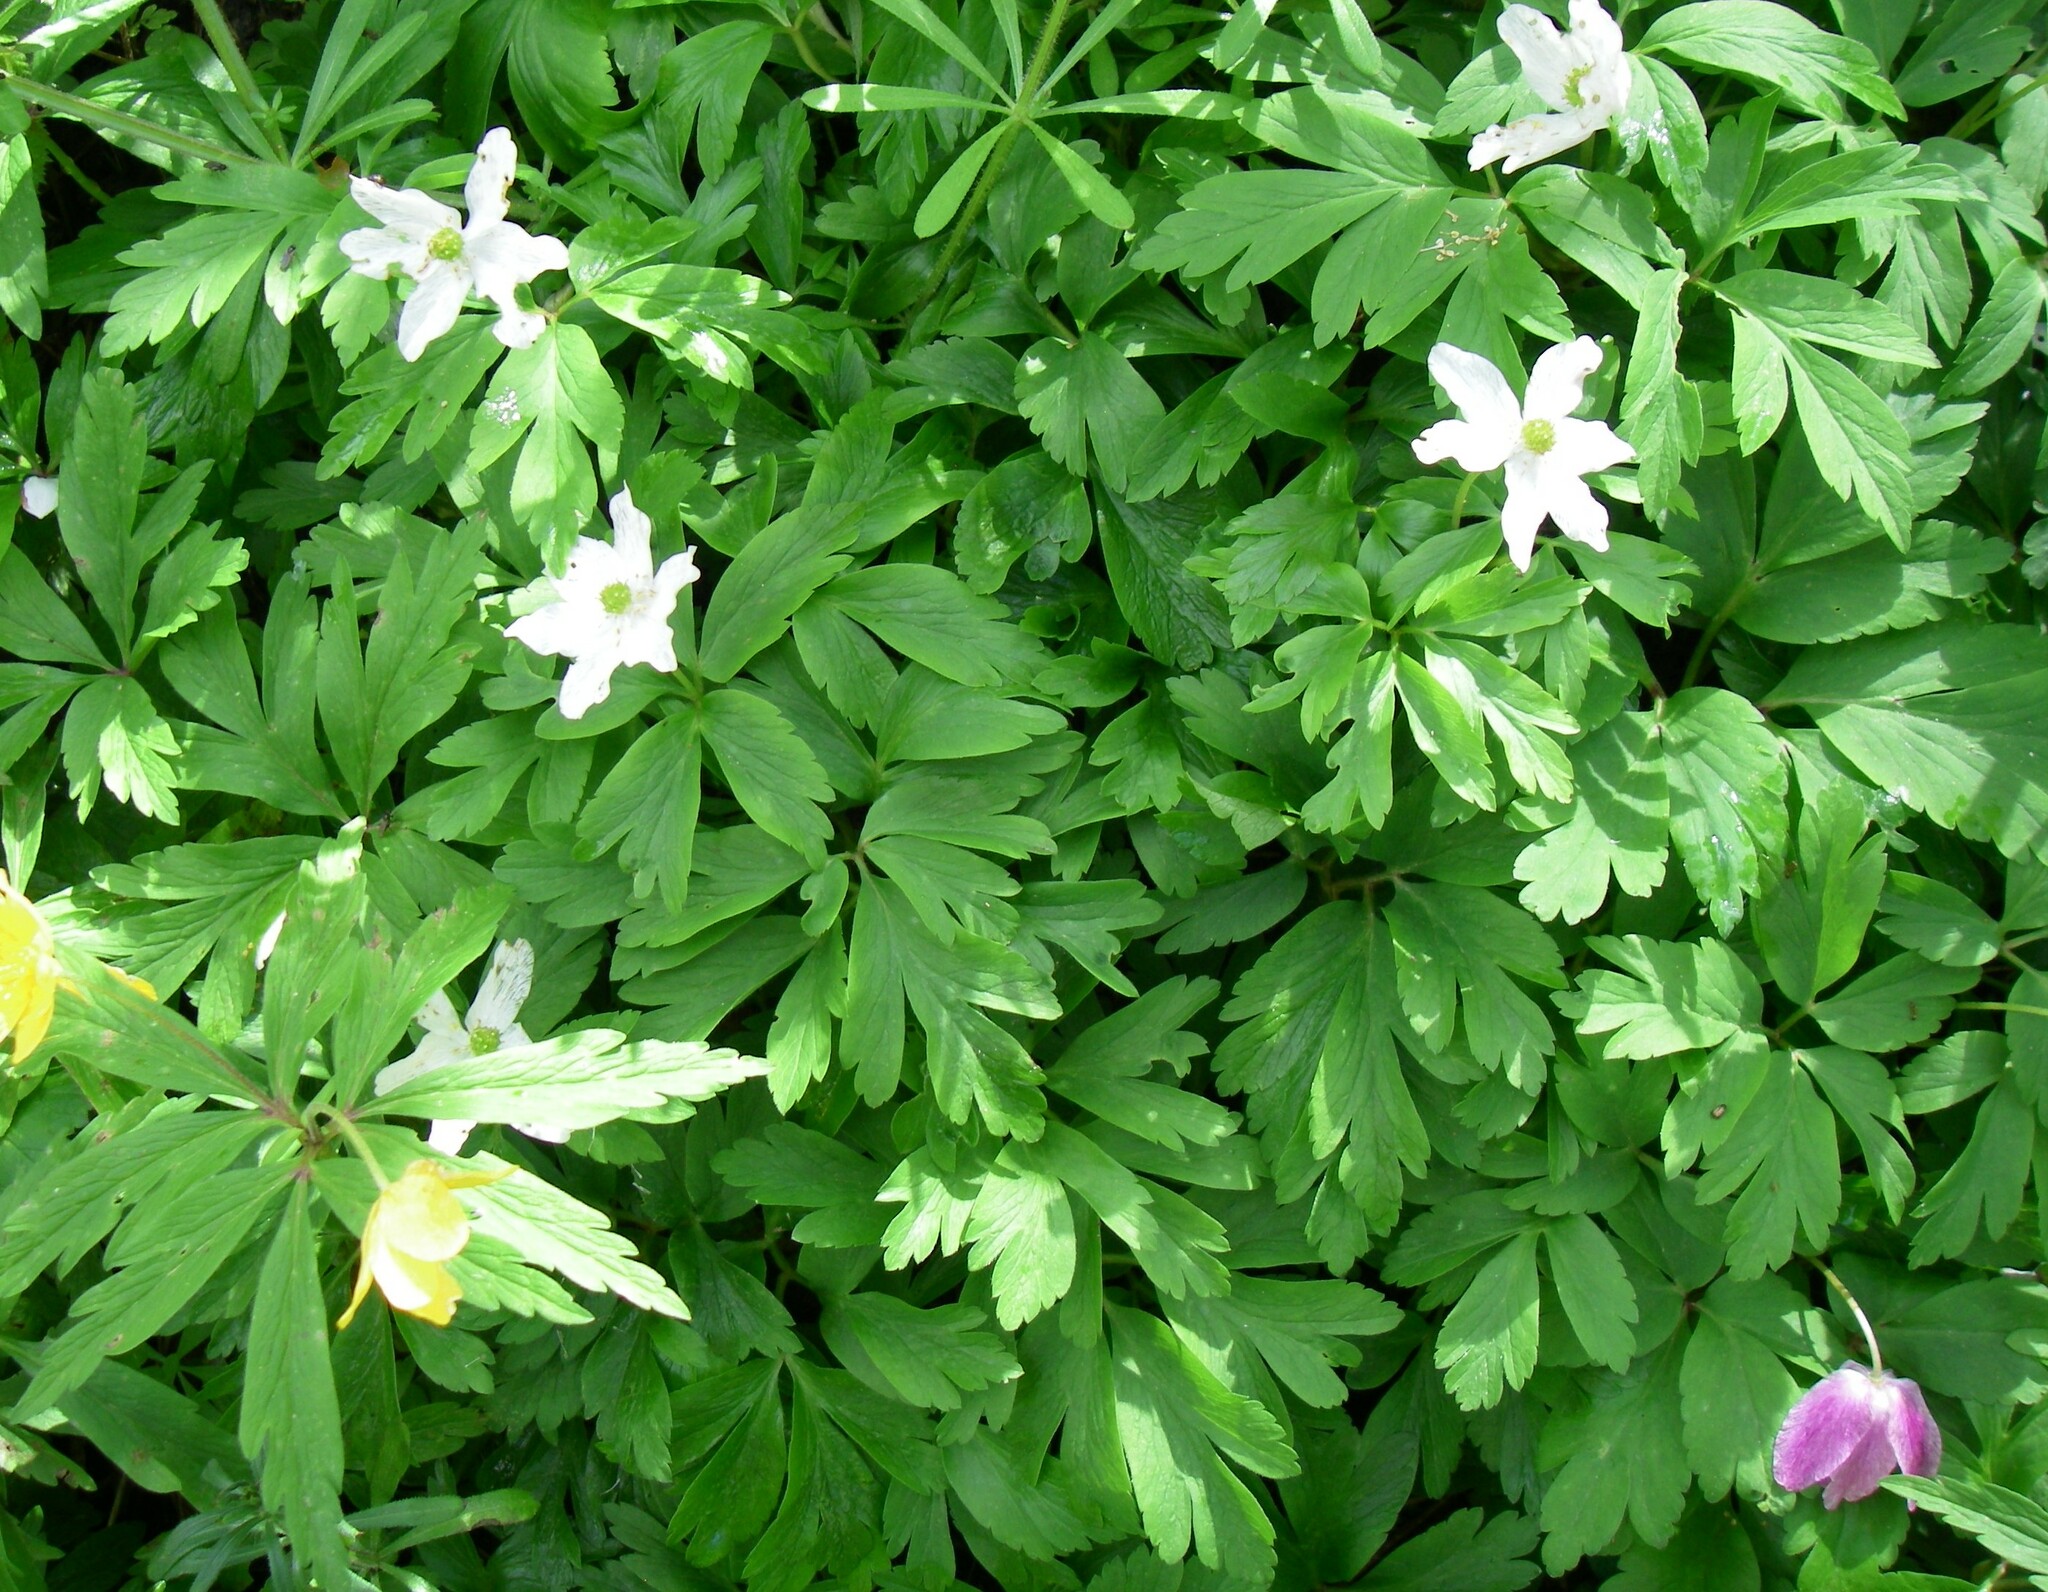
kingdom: Plantae
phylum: Tracheophyta
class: Magnoliopsida
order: Ranunculales
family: Ranunculaceae
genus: Anemone
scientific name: Anemone nemorosa
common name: Wood anemone
